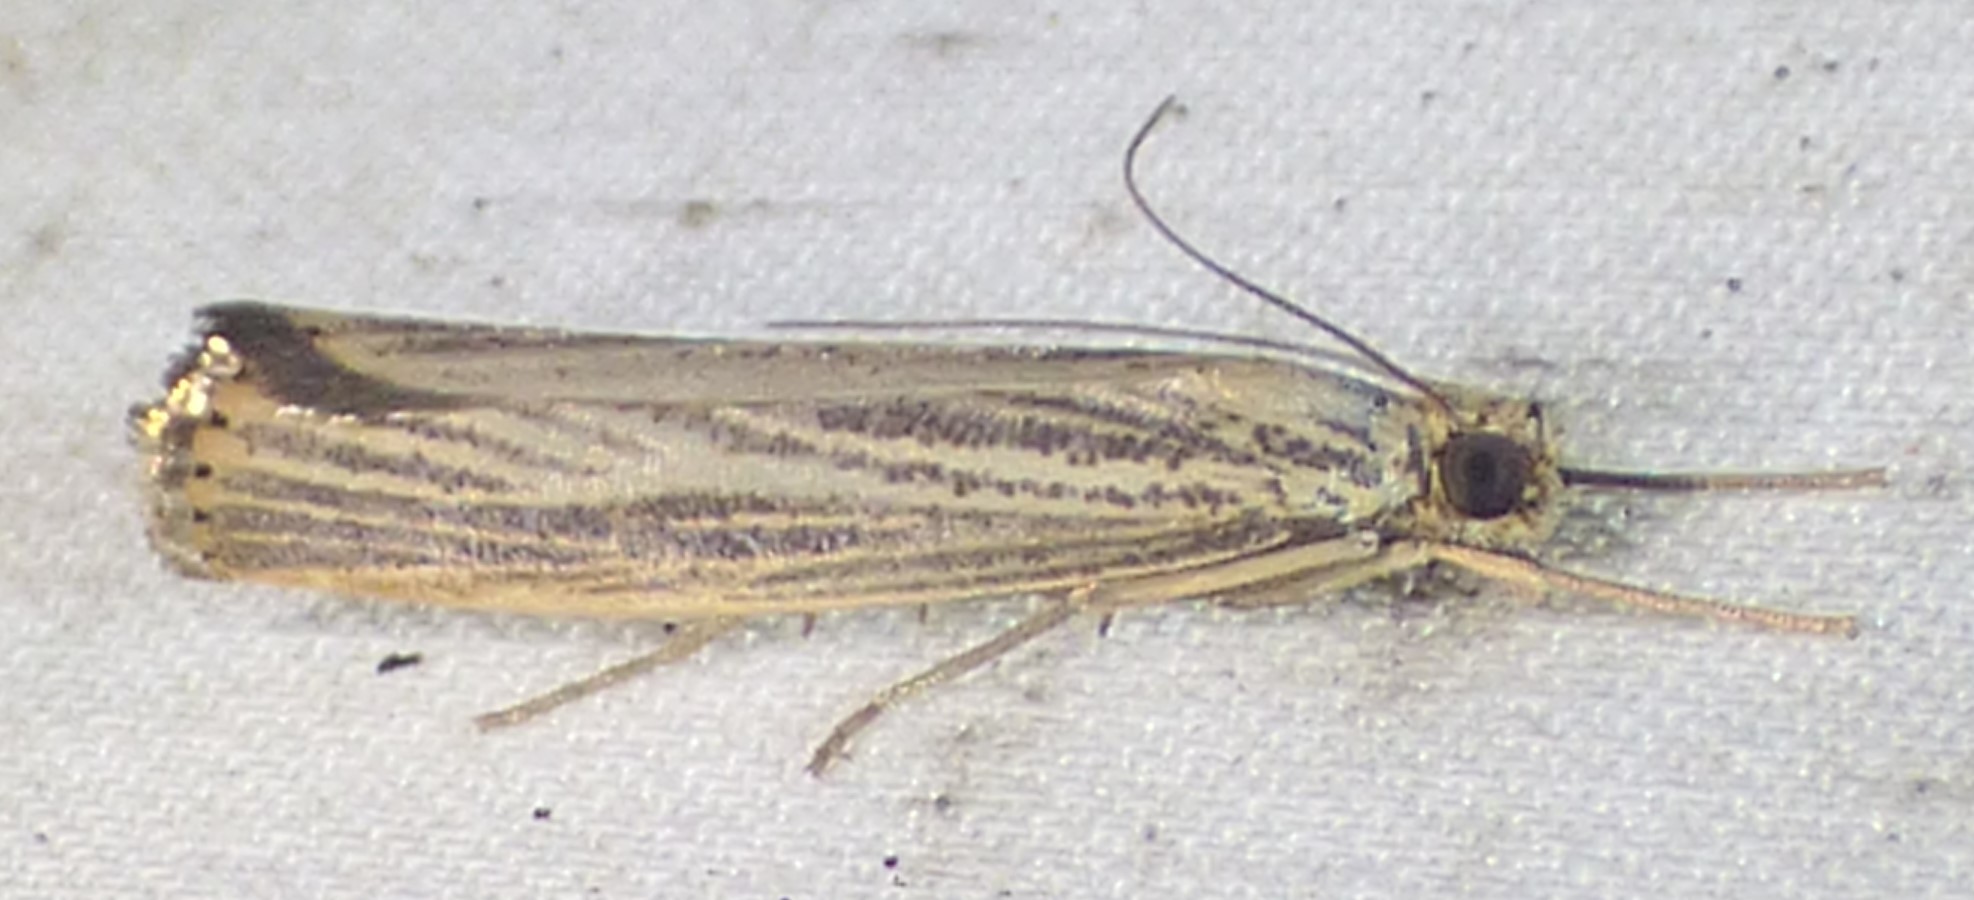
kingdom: Animalia
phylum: Arthropoda
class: Insecta
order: Lepidoptera
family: Crambidae
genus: Agriphila
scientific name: Agriphila vulgivagellus
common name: Vagabond crambus moth
